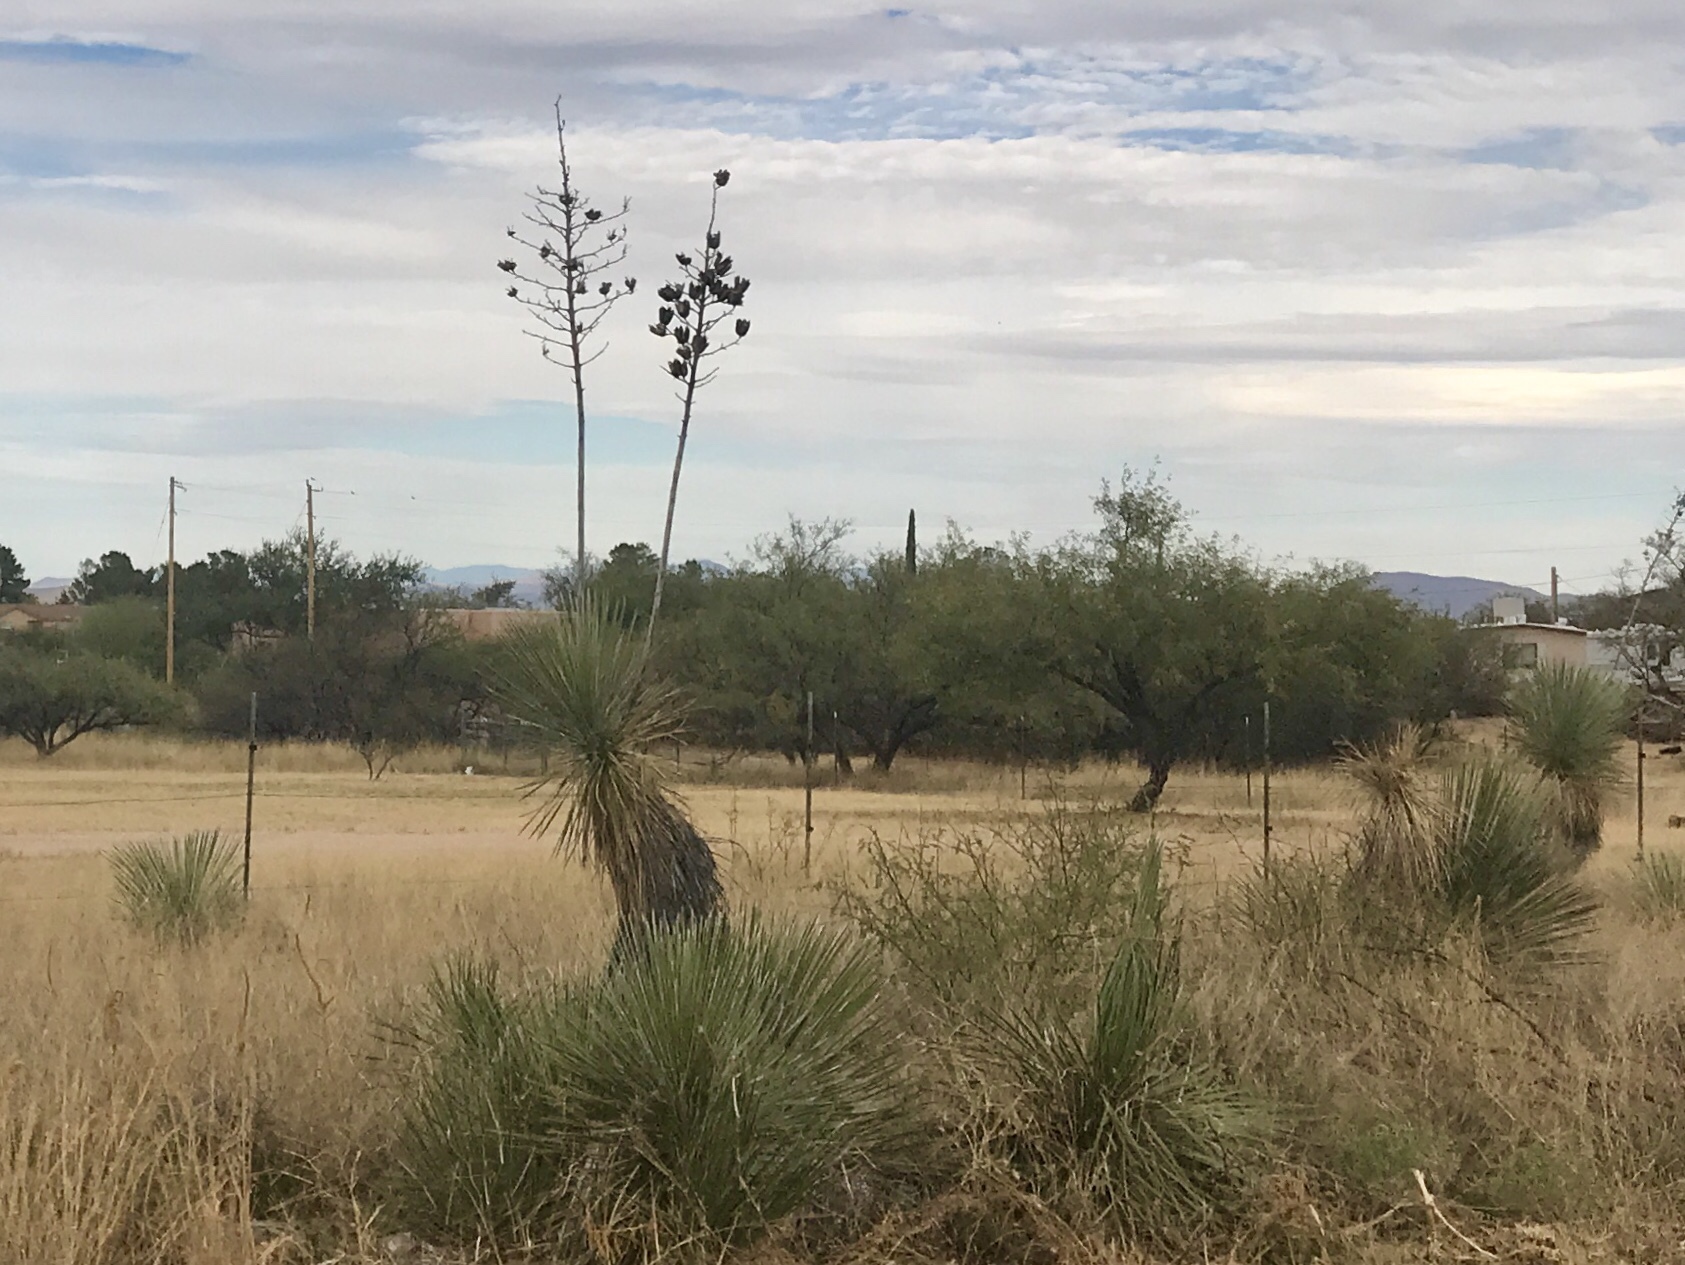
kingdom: Plantae
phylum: Tracheophyta
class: Liliopsida
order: Asparagales
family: Asparagaceae
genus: Yucca
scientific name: Yucca elata
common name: Palmella
